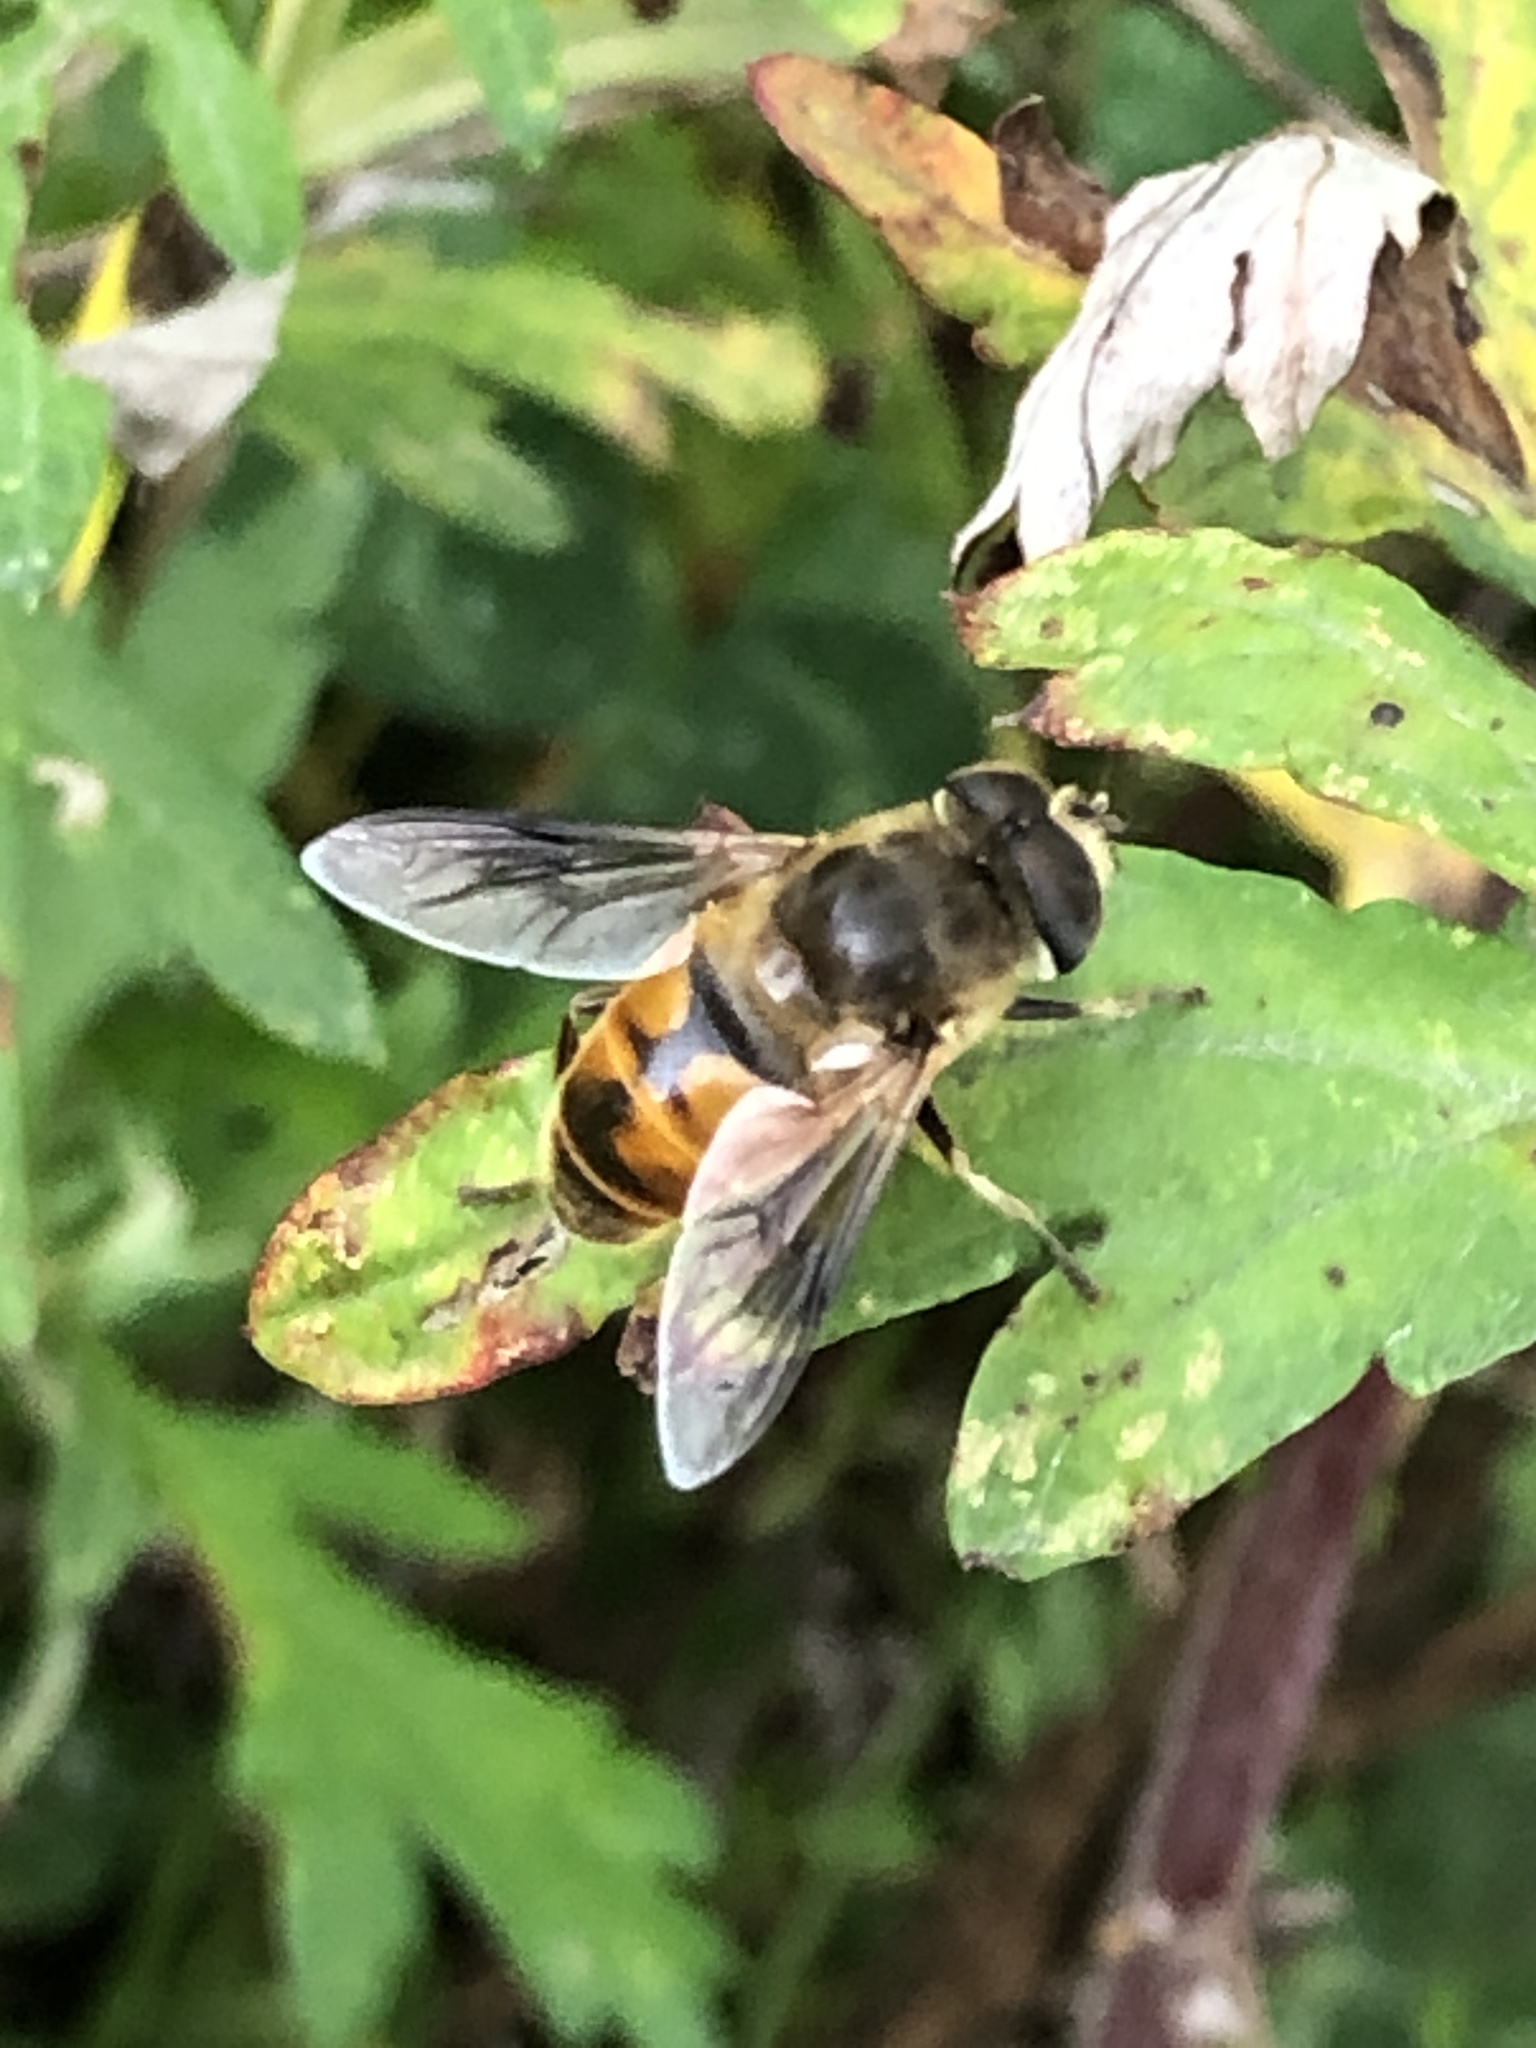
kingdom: Animalia
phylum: Arthropoda
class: Insecta
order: Diptera
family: Syrphidae
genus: Eristalis
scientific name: Eristalis tenax
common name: Drone fly
